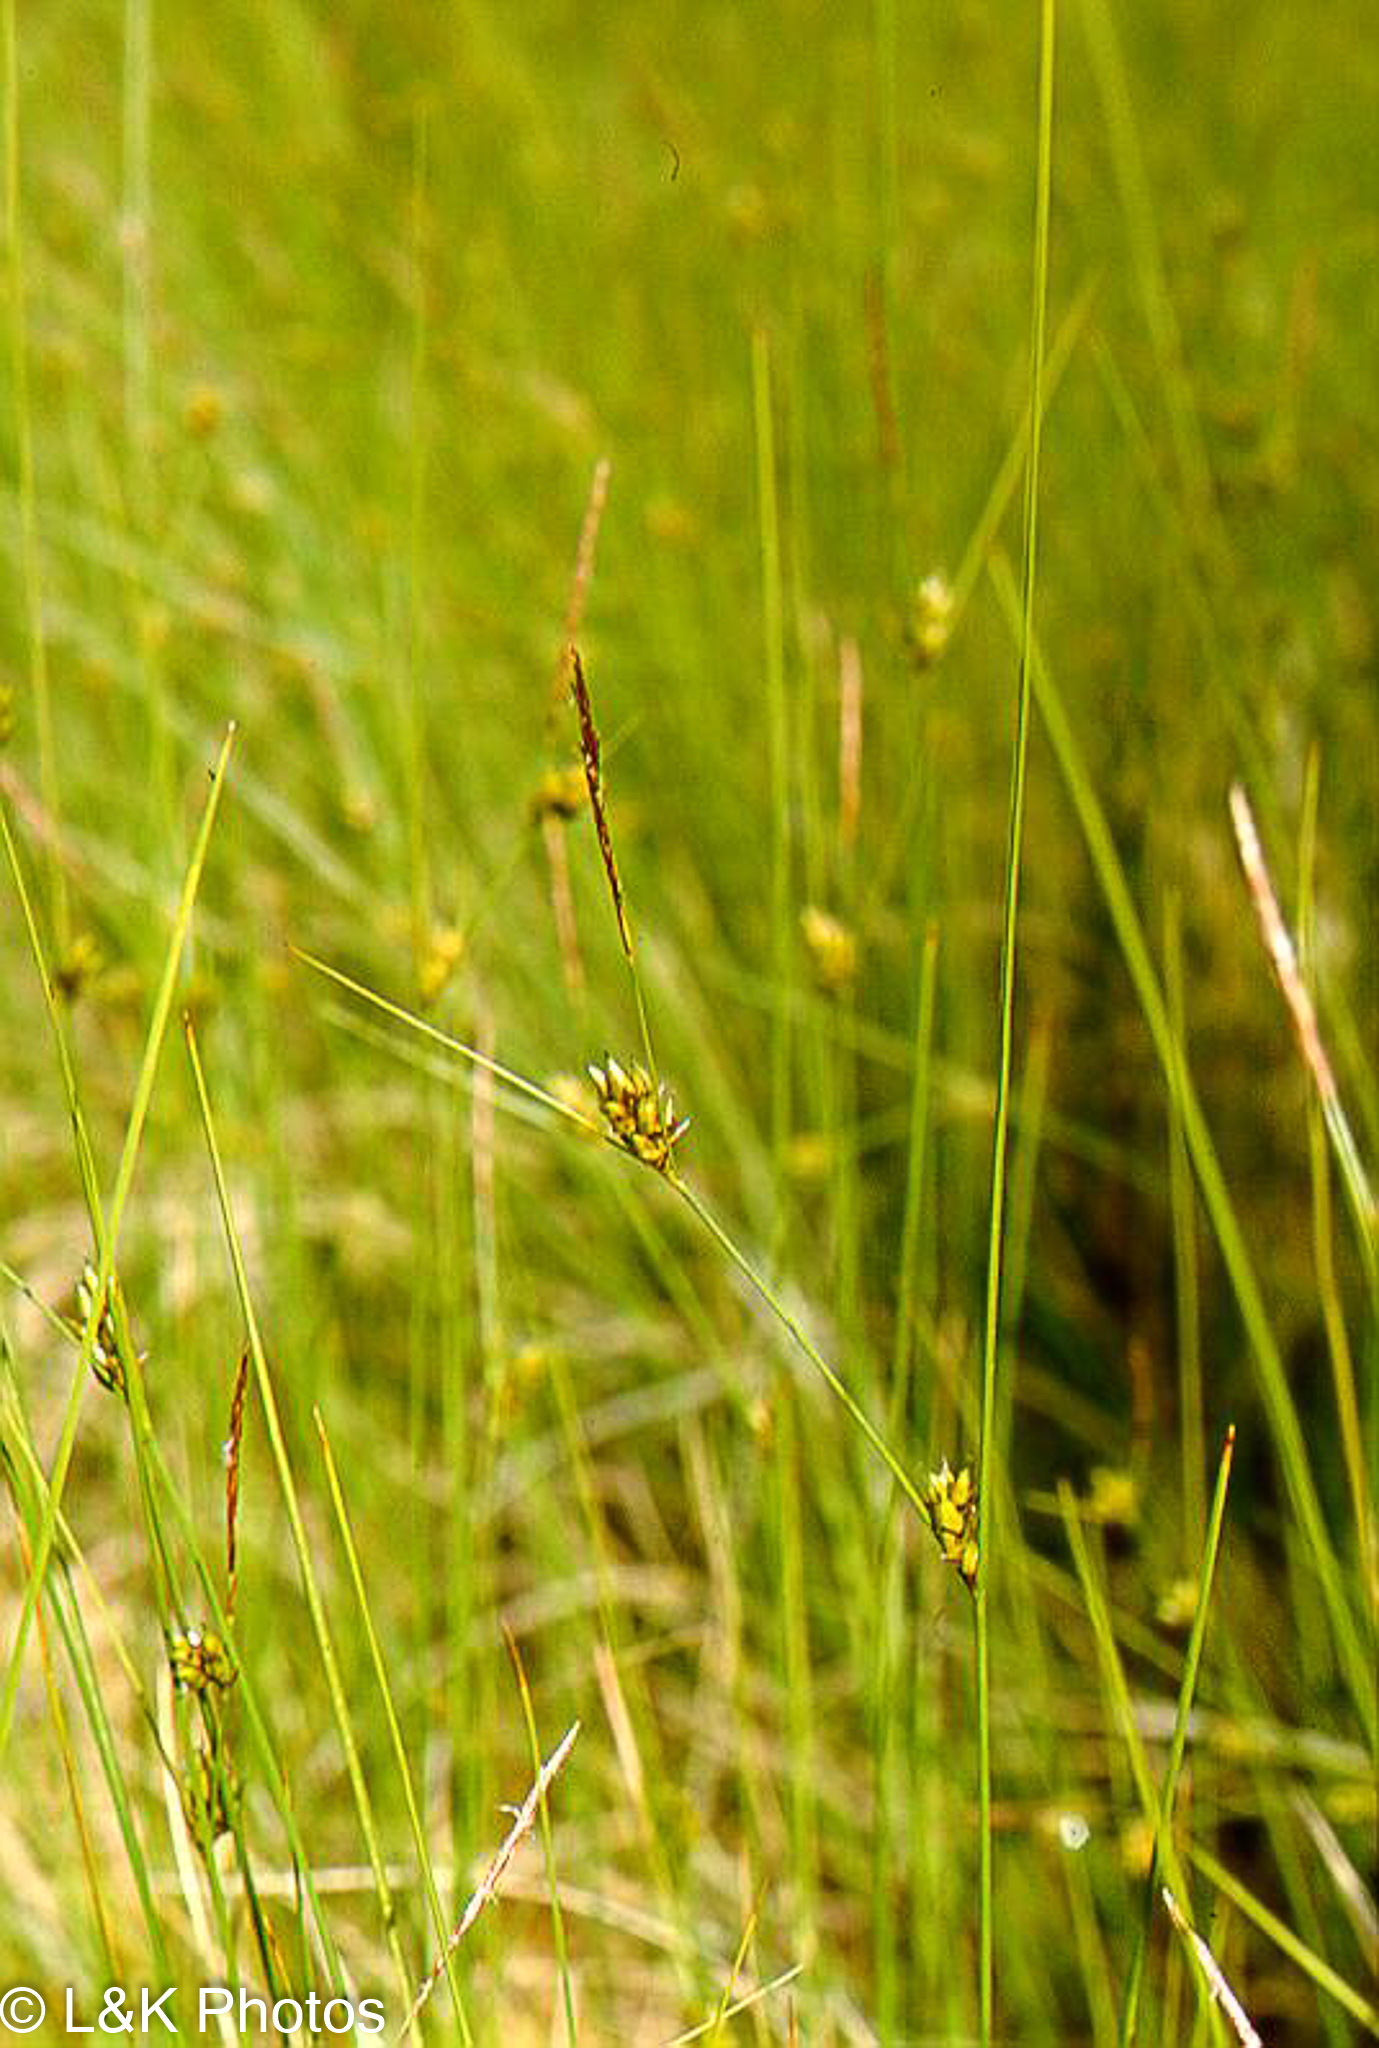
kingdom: Plantae
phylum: Tracheophyta
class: Liliopsida
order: Poales
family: Cyperaceae
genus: Carex
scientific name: Carex oligosperma
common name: Few-seed sedge
